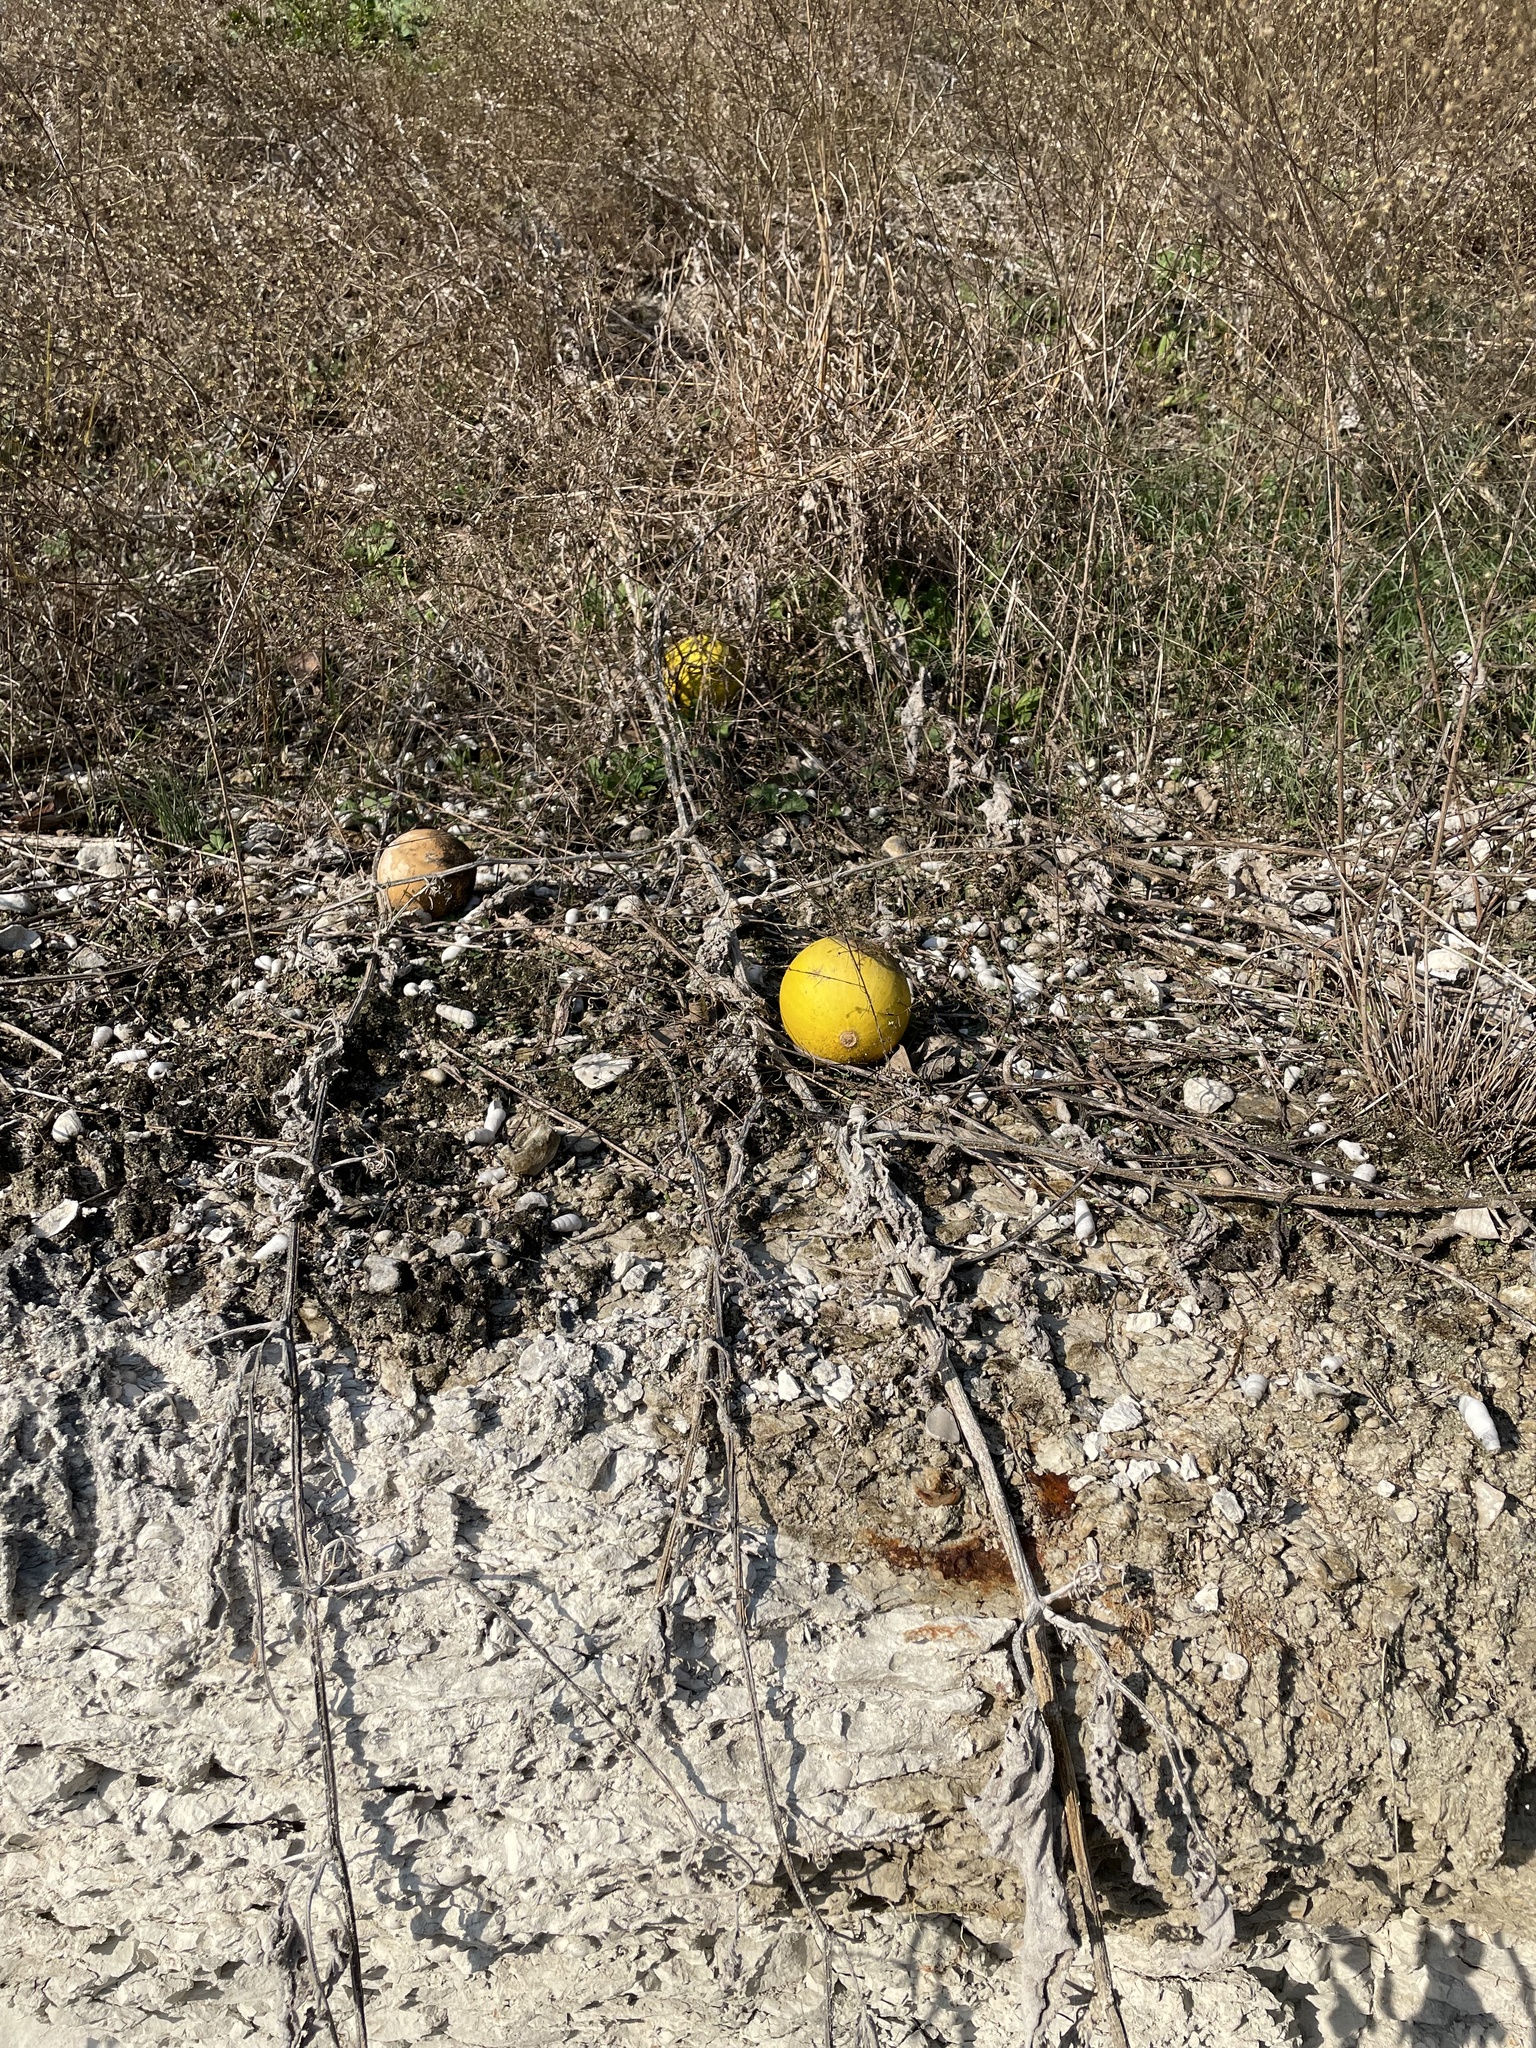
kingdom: Plantae
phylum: Tracheophyta
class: Magnoliopsida
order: Cucurbitales
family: Cucurbitaceae
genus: Cucurbita
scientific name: Cucurbita foetidissima
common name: Buffalo gourd
